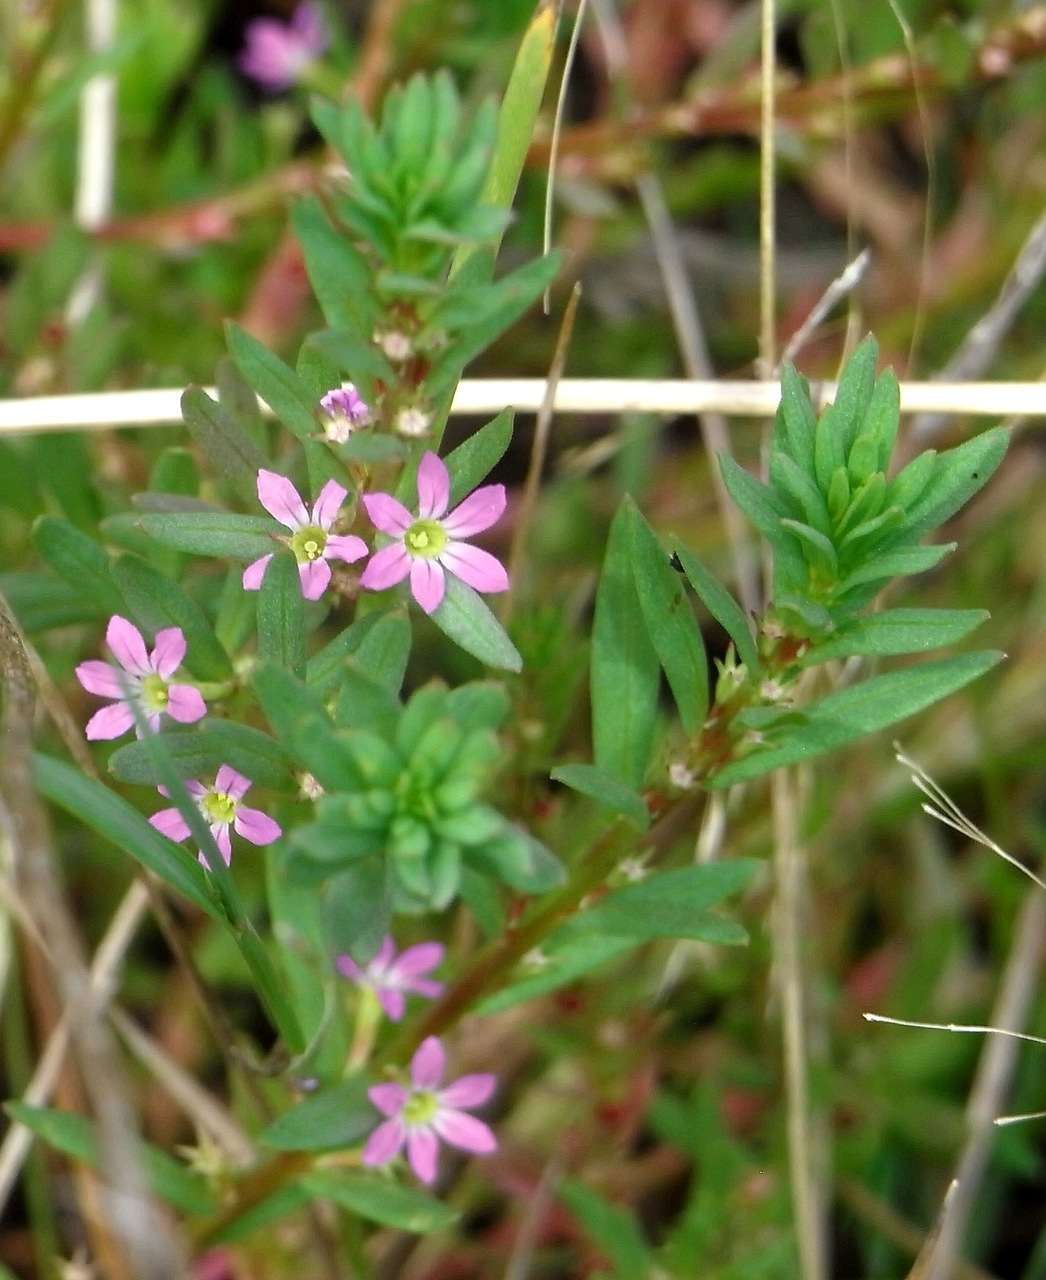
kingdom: Plantae
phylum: Tracheophyta
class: Magnoliopsida
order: Myrtales
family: Lythraceae
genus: Lythrum
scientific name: Lythrum hyssopifolia
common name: Grass-poly
